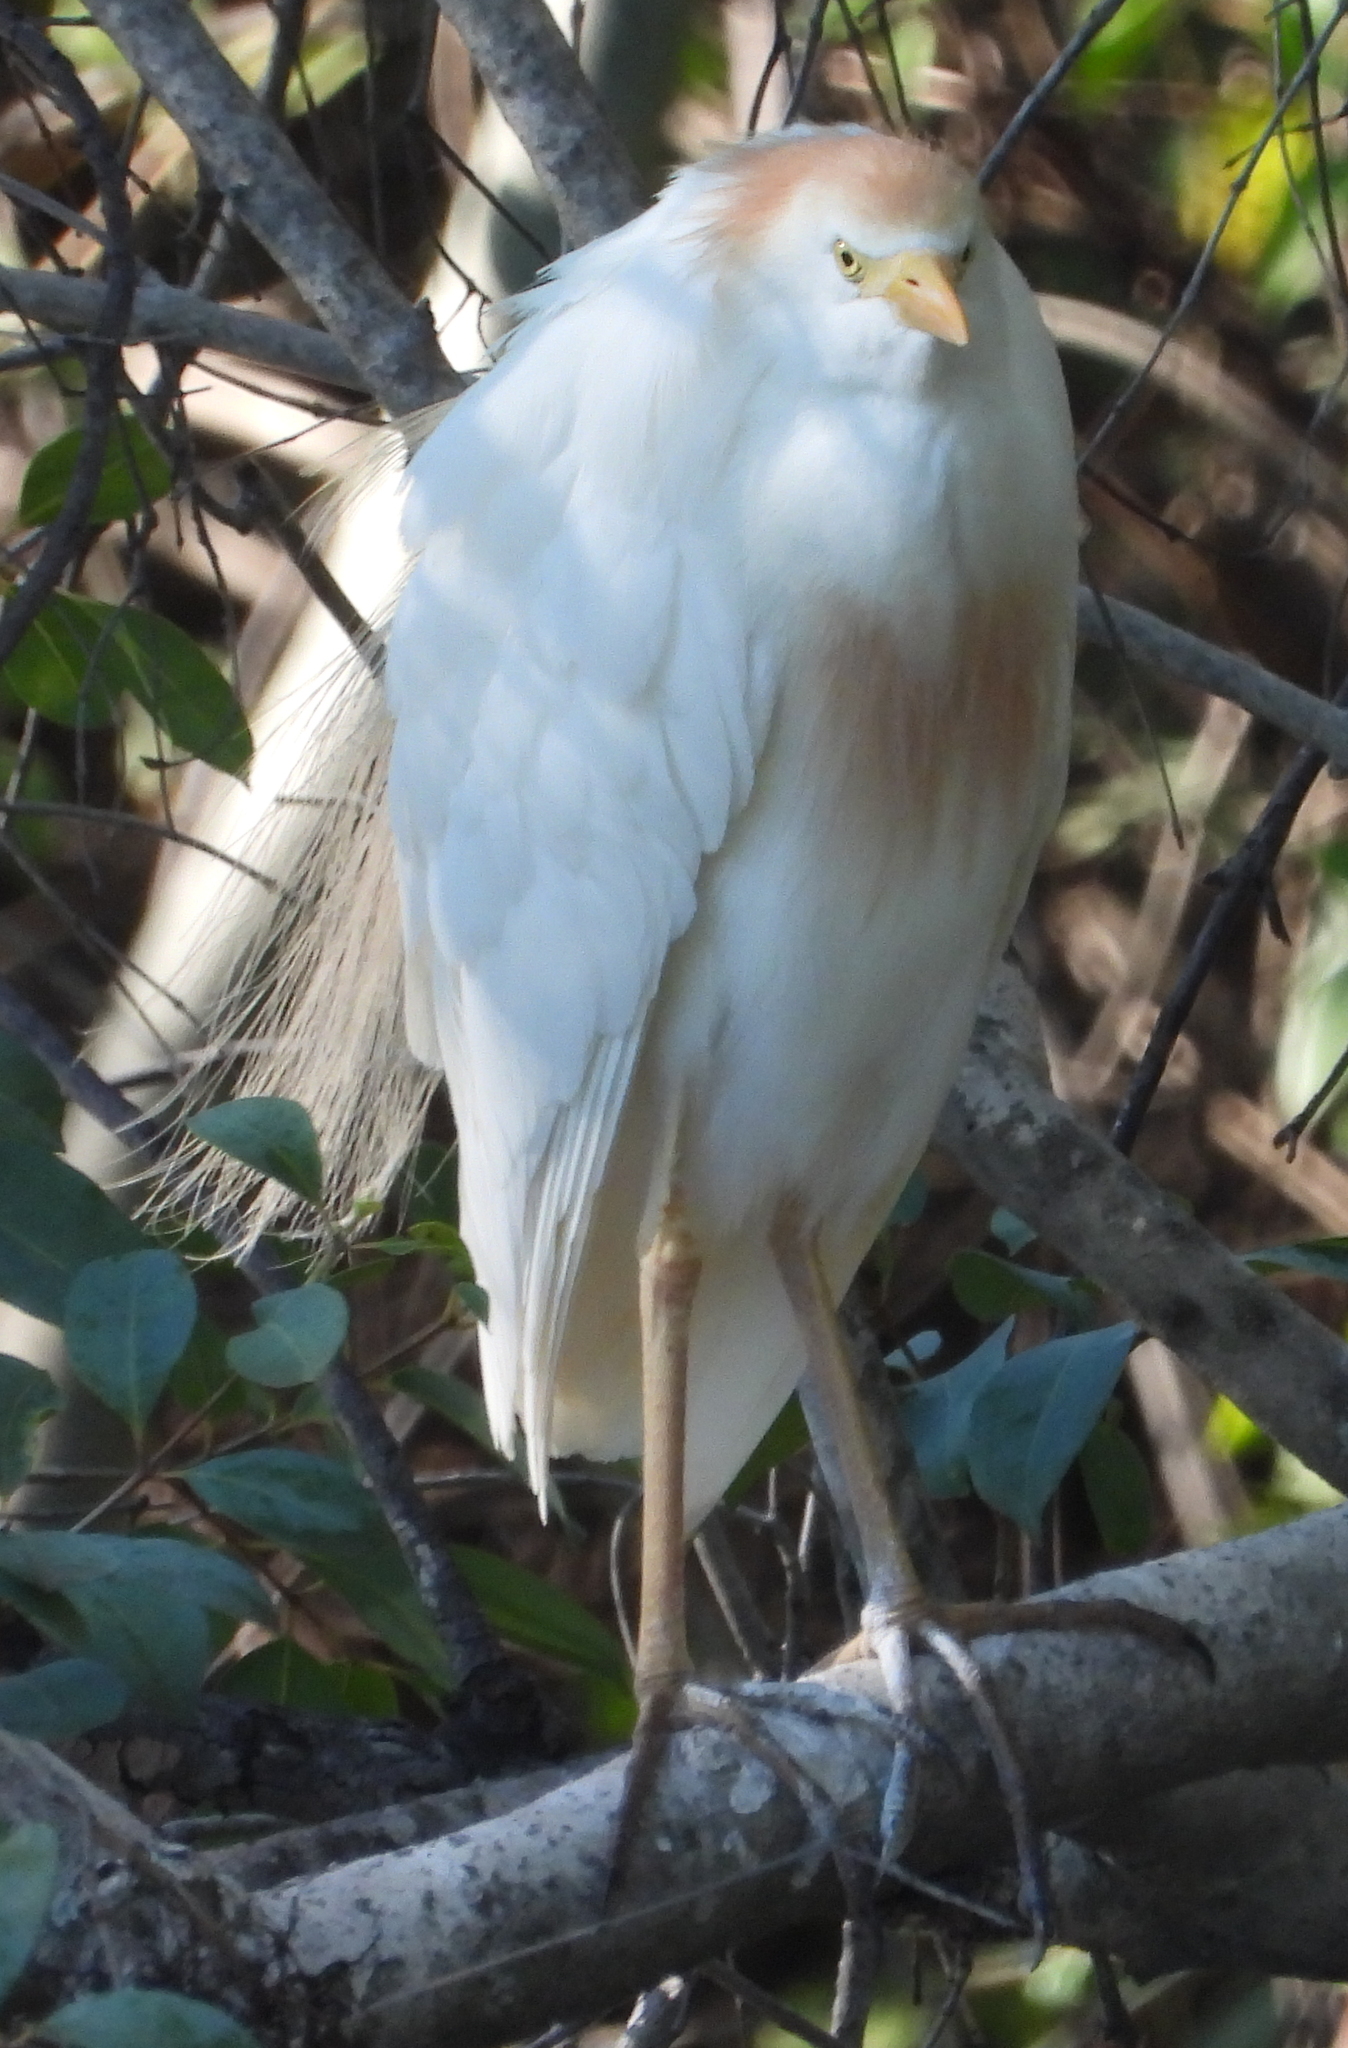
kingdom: Animalia
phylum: Chordata
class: Aves
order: Pelecaniformes
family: Ardeidae
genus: Bubulcus
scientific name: Bubulcus ibis
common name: Cattle egret
